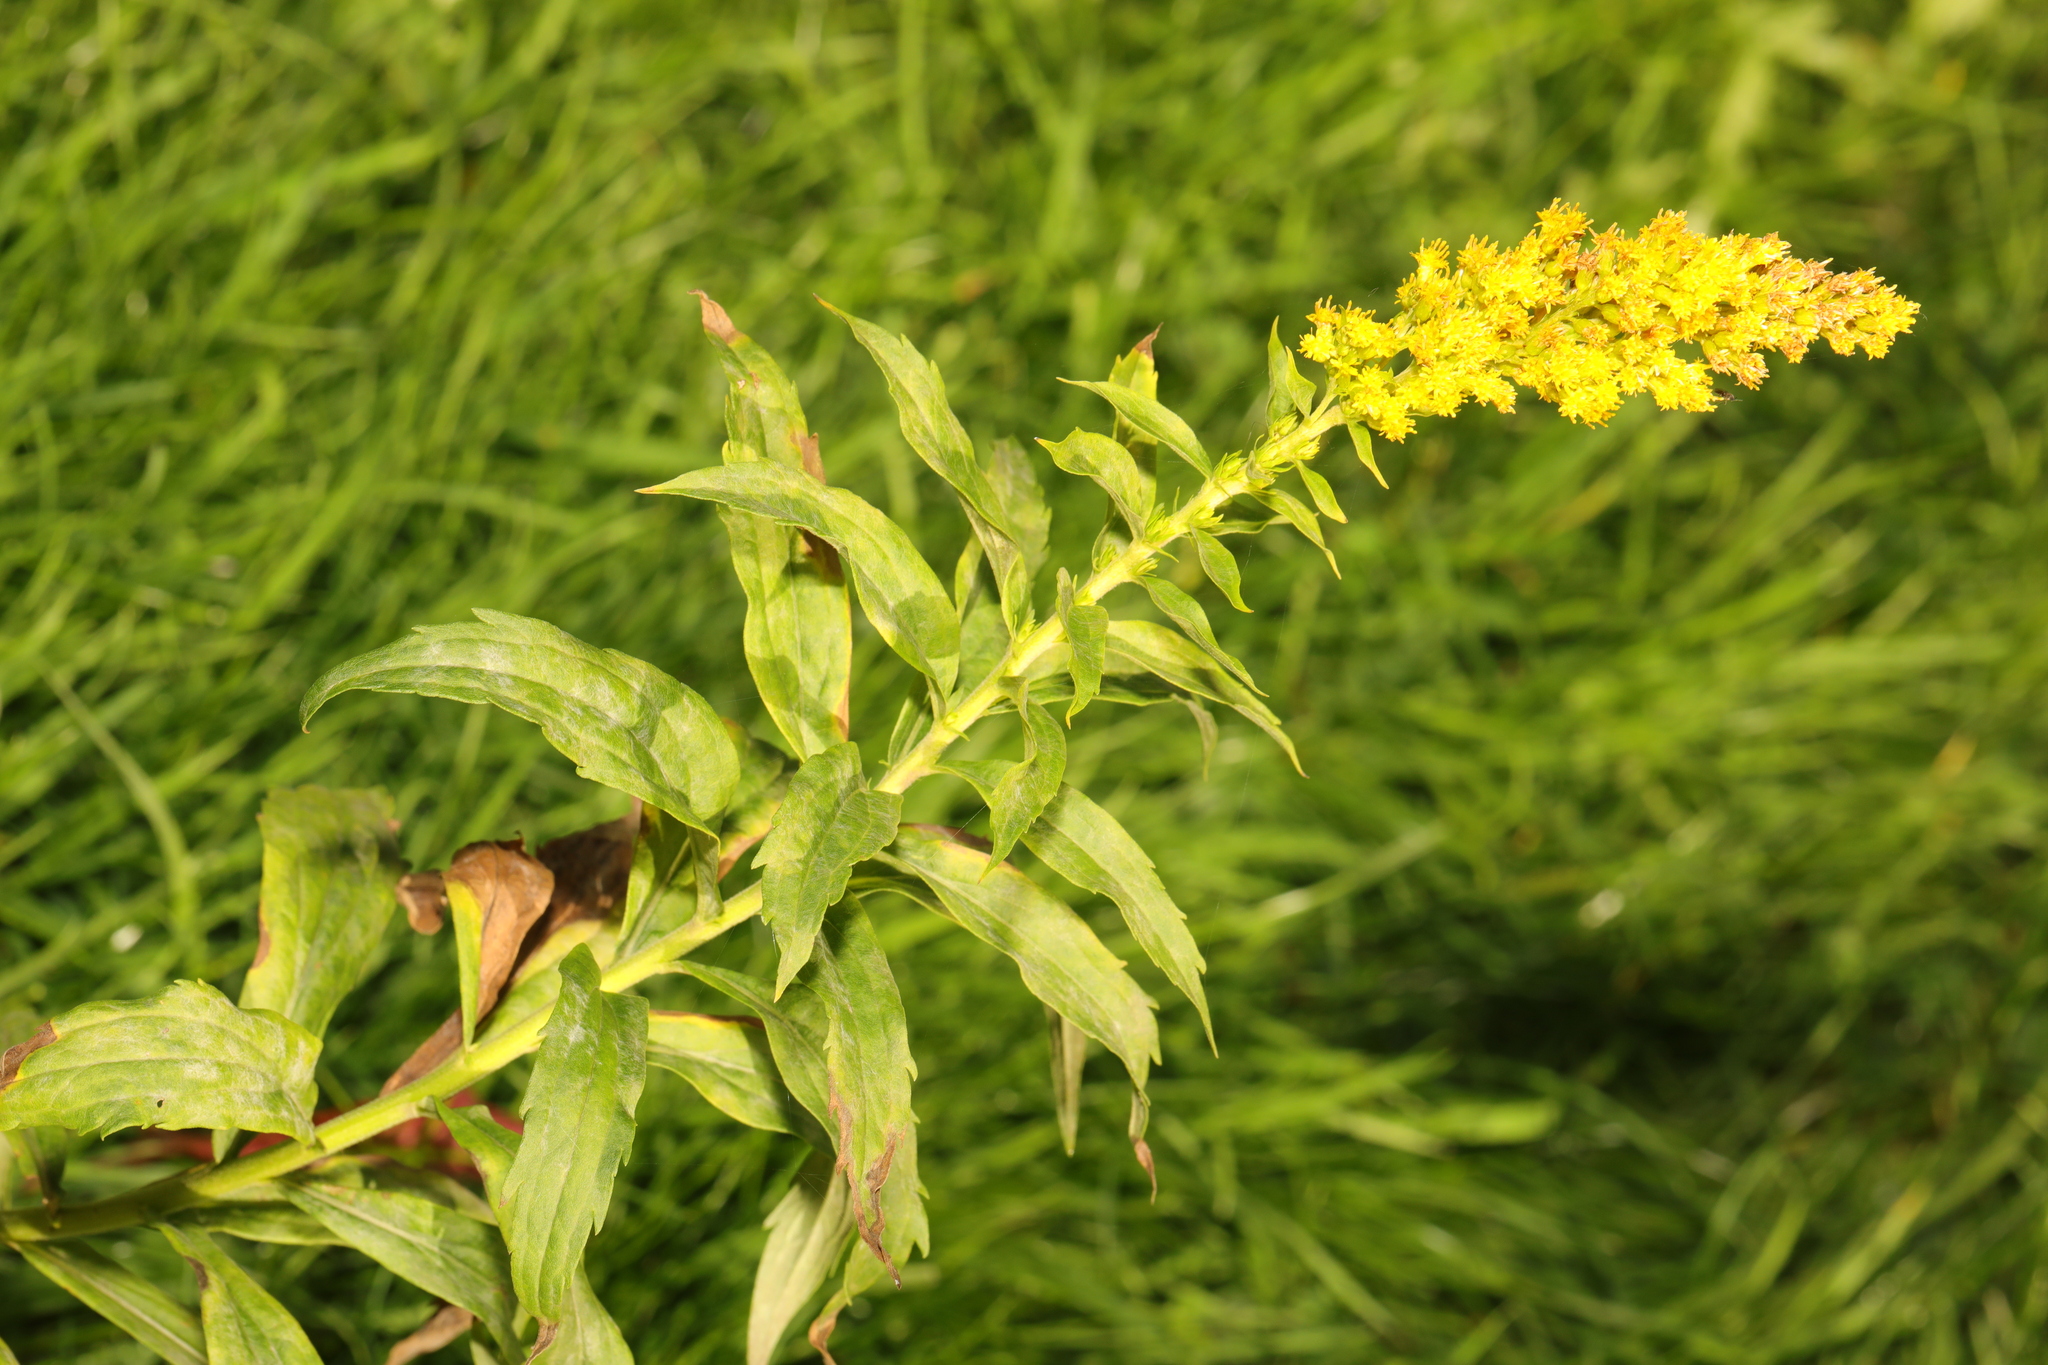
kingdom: Plantae
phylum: Tracheophyta
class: Magnoliopsida
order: Asterales
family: Asteraceae
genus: Solidago
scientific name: Solidago canadensis
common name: Canada goldenrod
